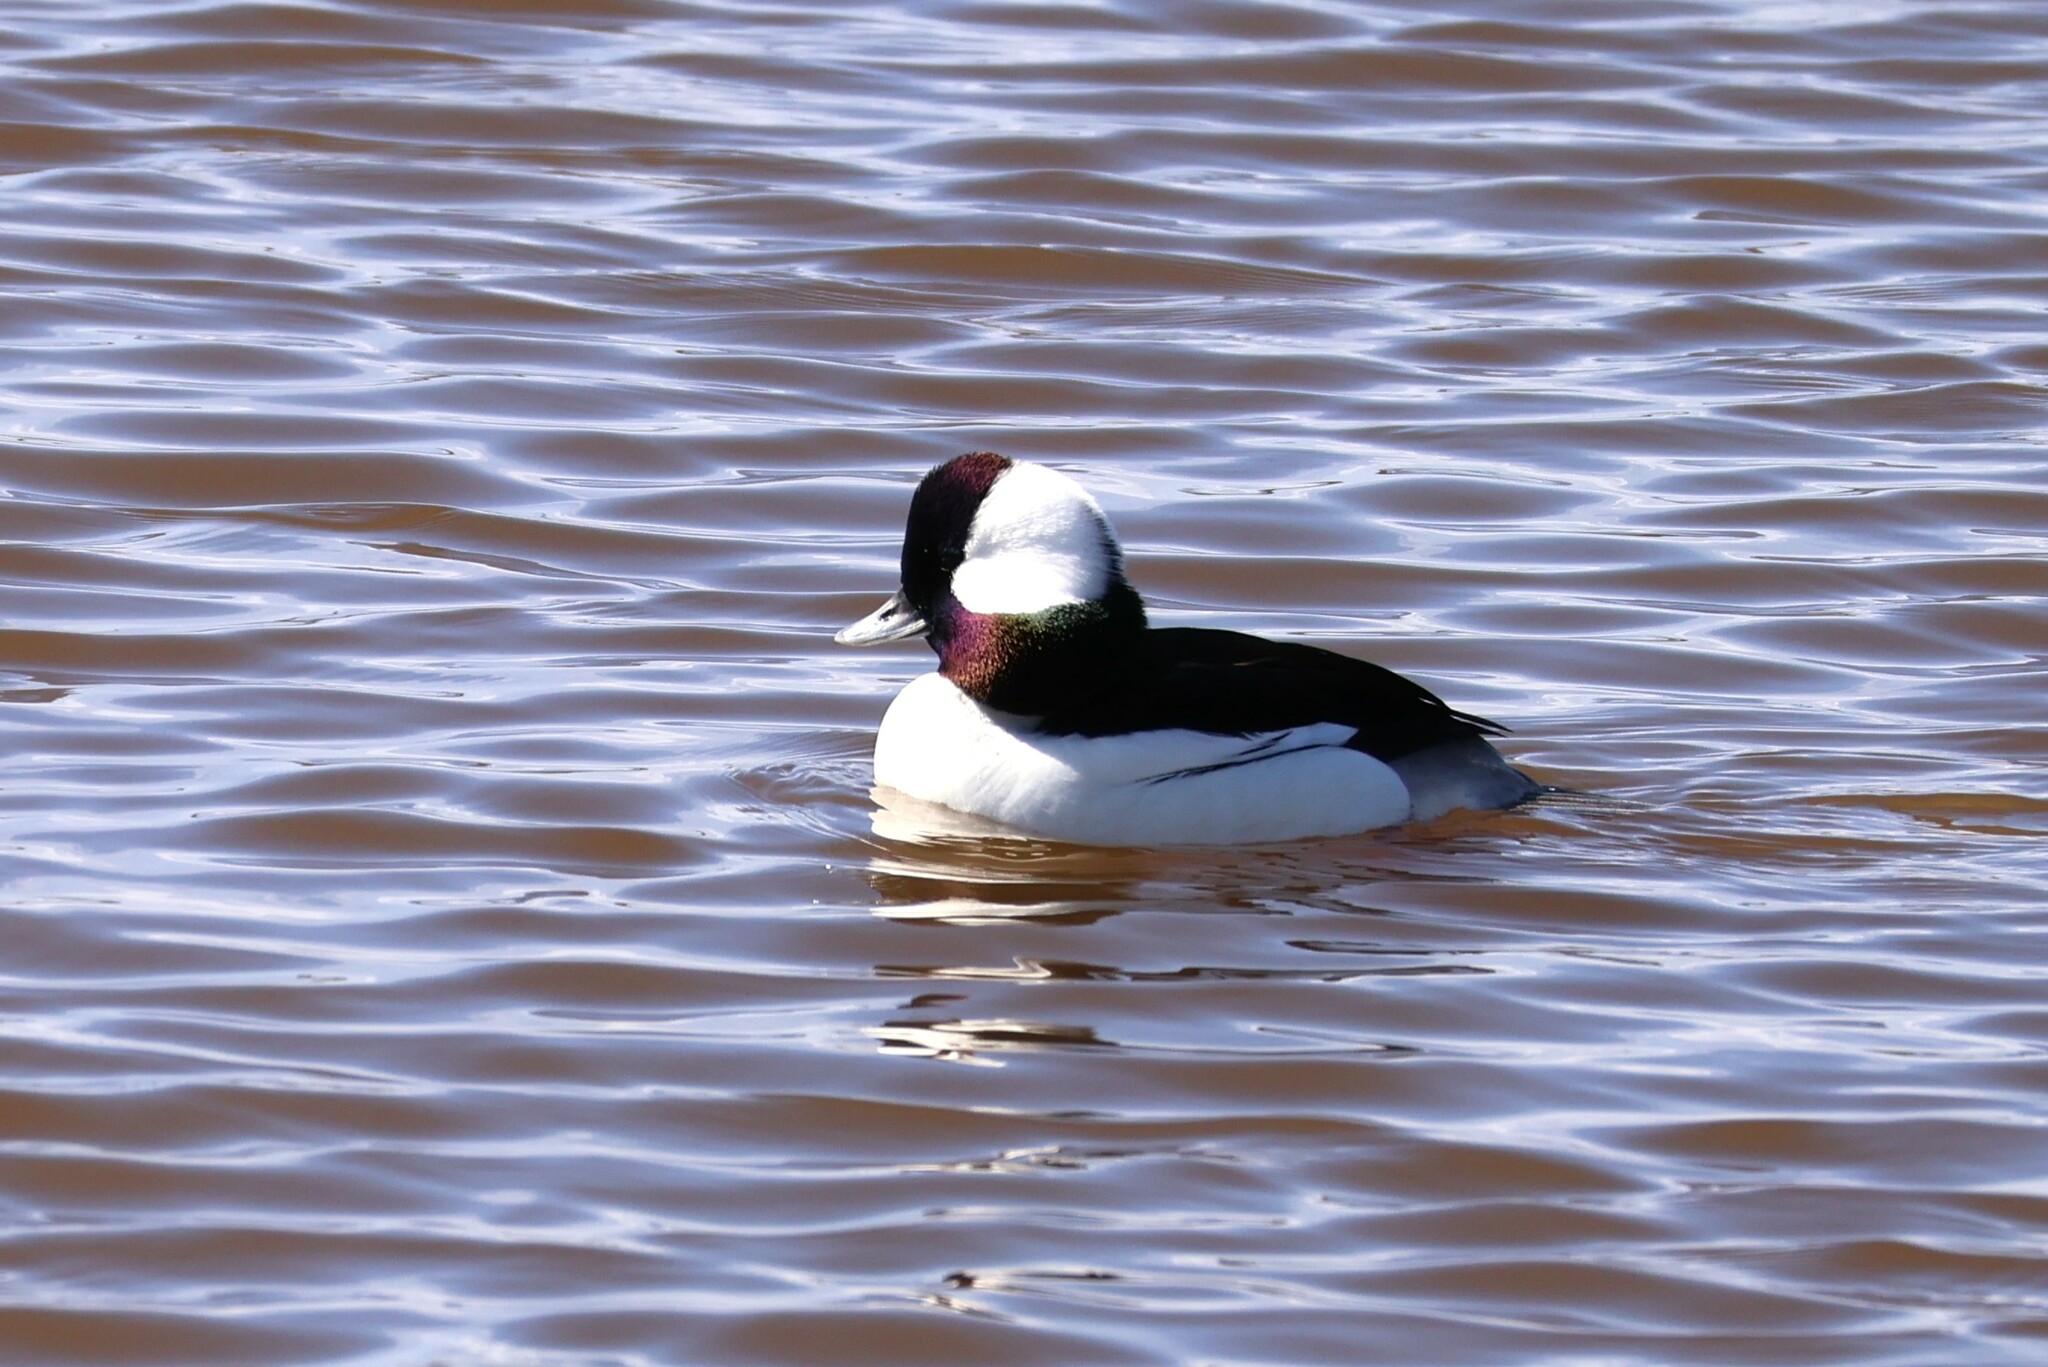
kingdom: Animalia
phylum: Chordata
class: Aves
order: Anseriformes
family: Anatidae
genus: Bucephala
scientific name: Bucephala albeola
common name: Bufflehead
